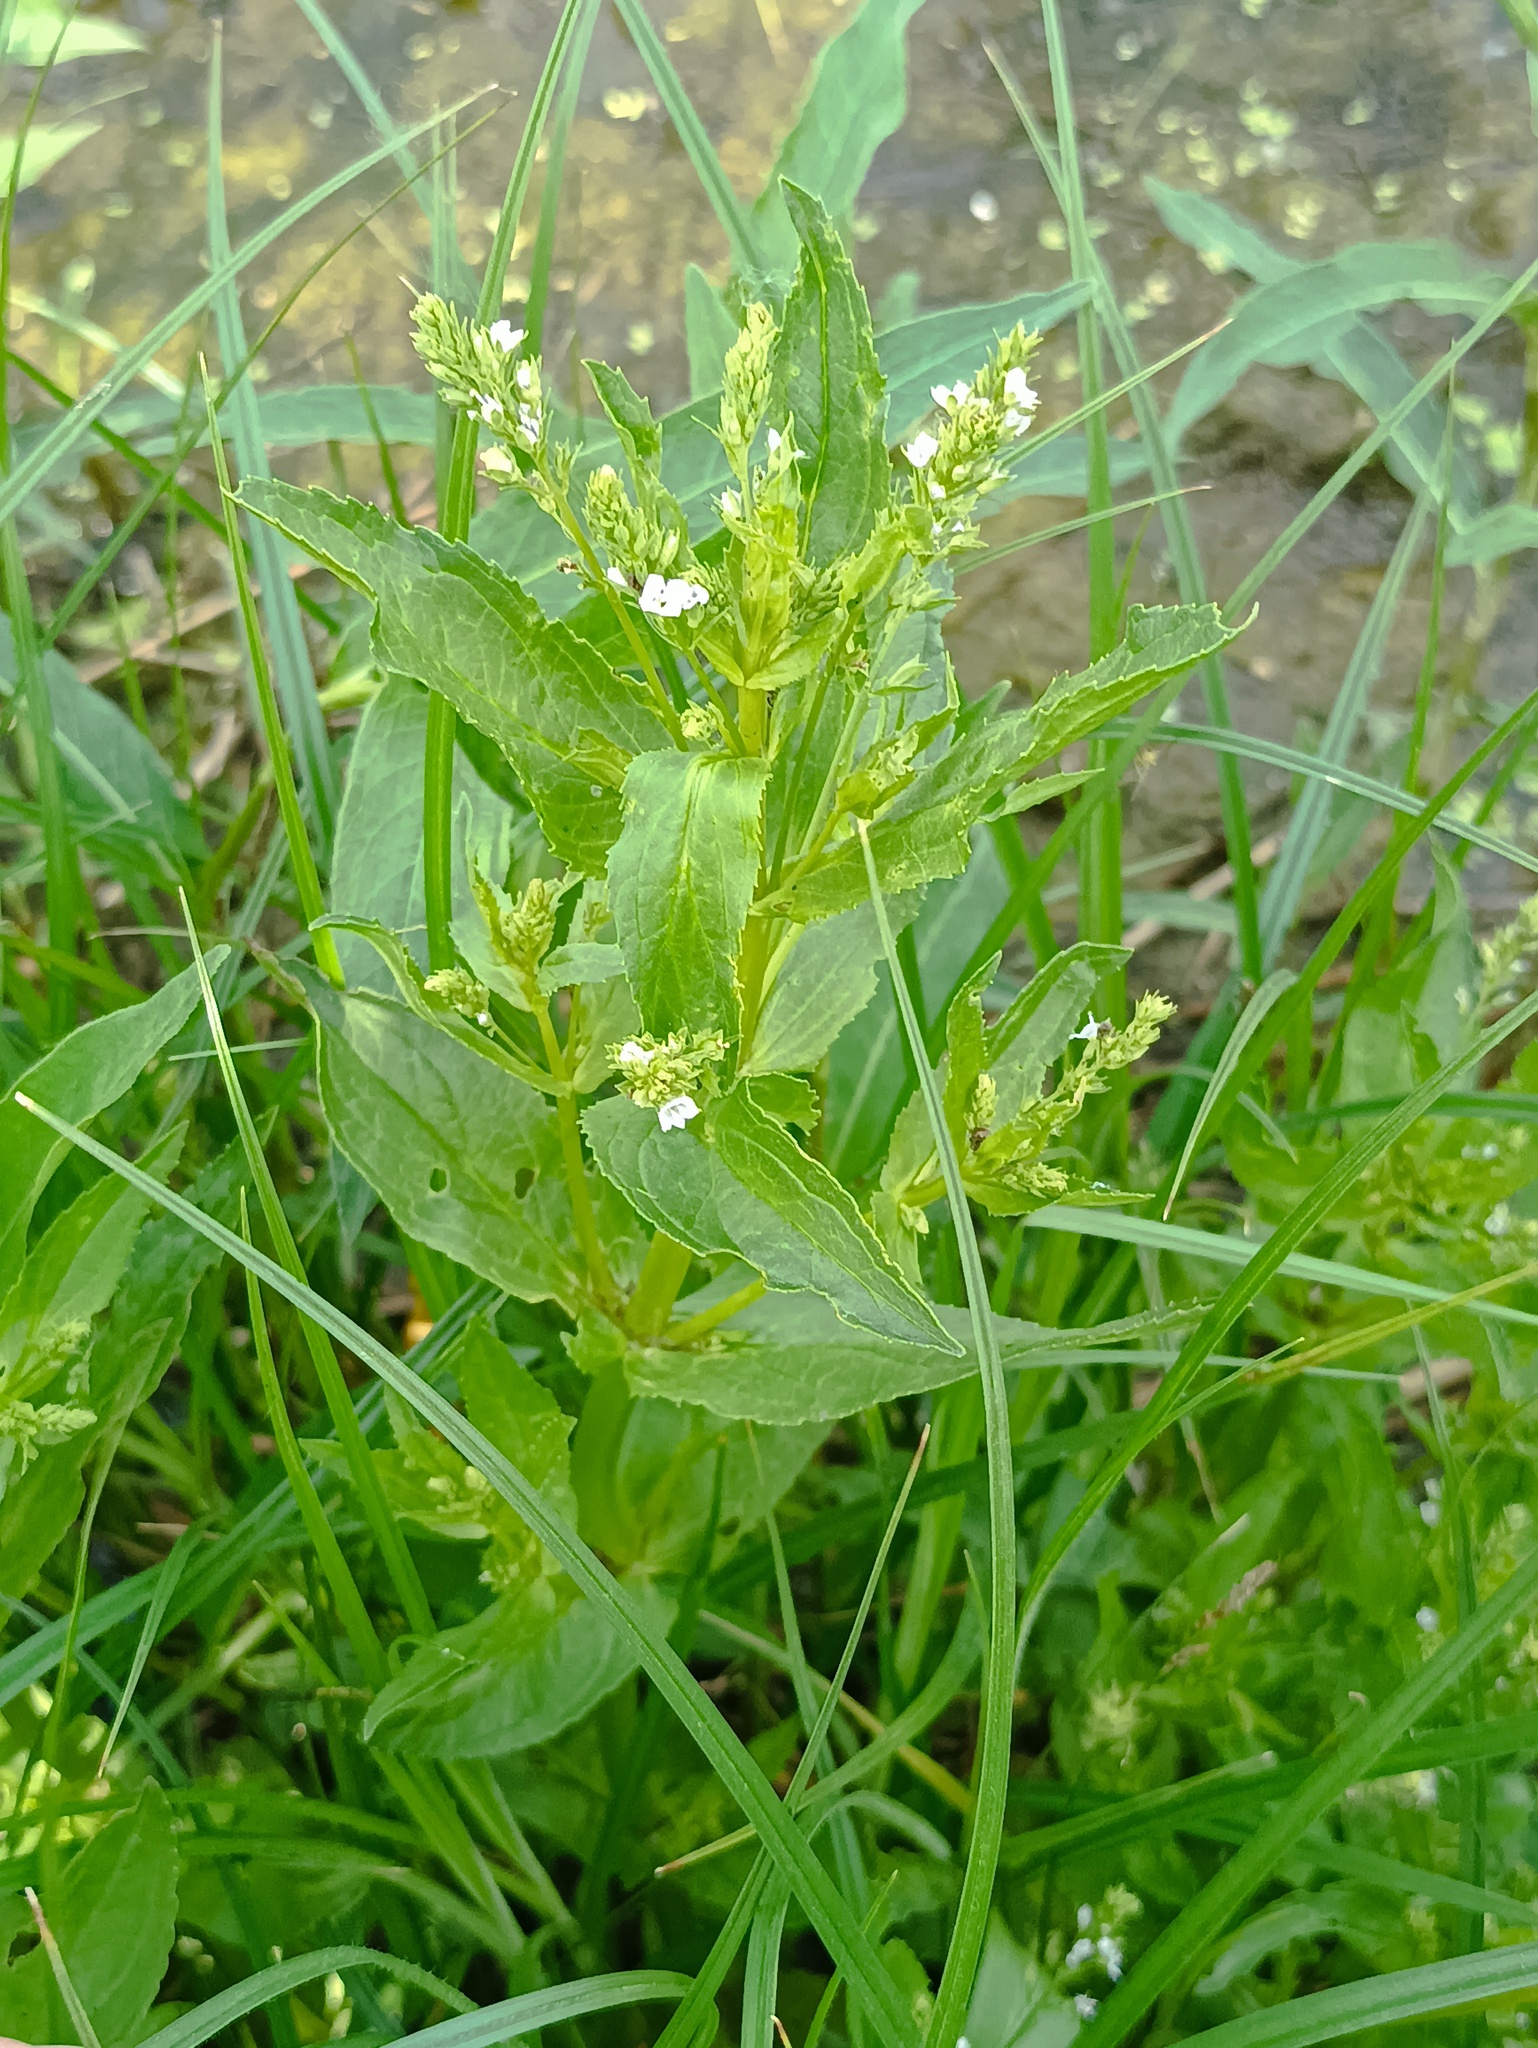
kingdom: Plantae
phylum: Tracheophyta
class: Magnoliopsida
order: Lamiales
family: Plantaginaceae
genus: Veronica
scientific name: Veronica anagallis-aquatica
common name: Water speedwell
